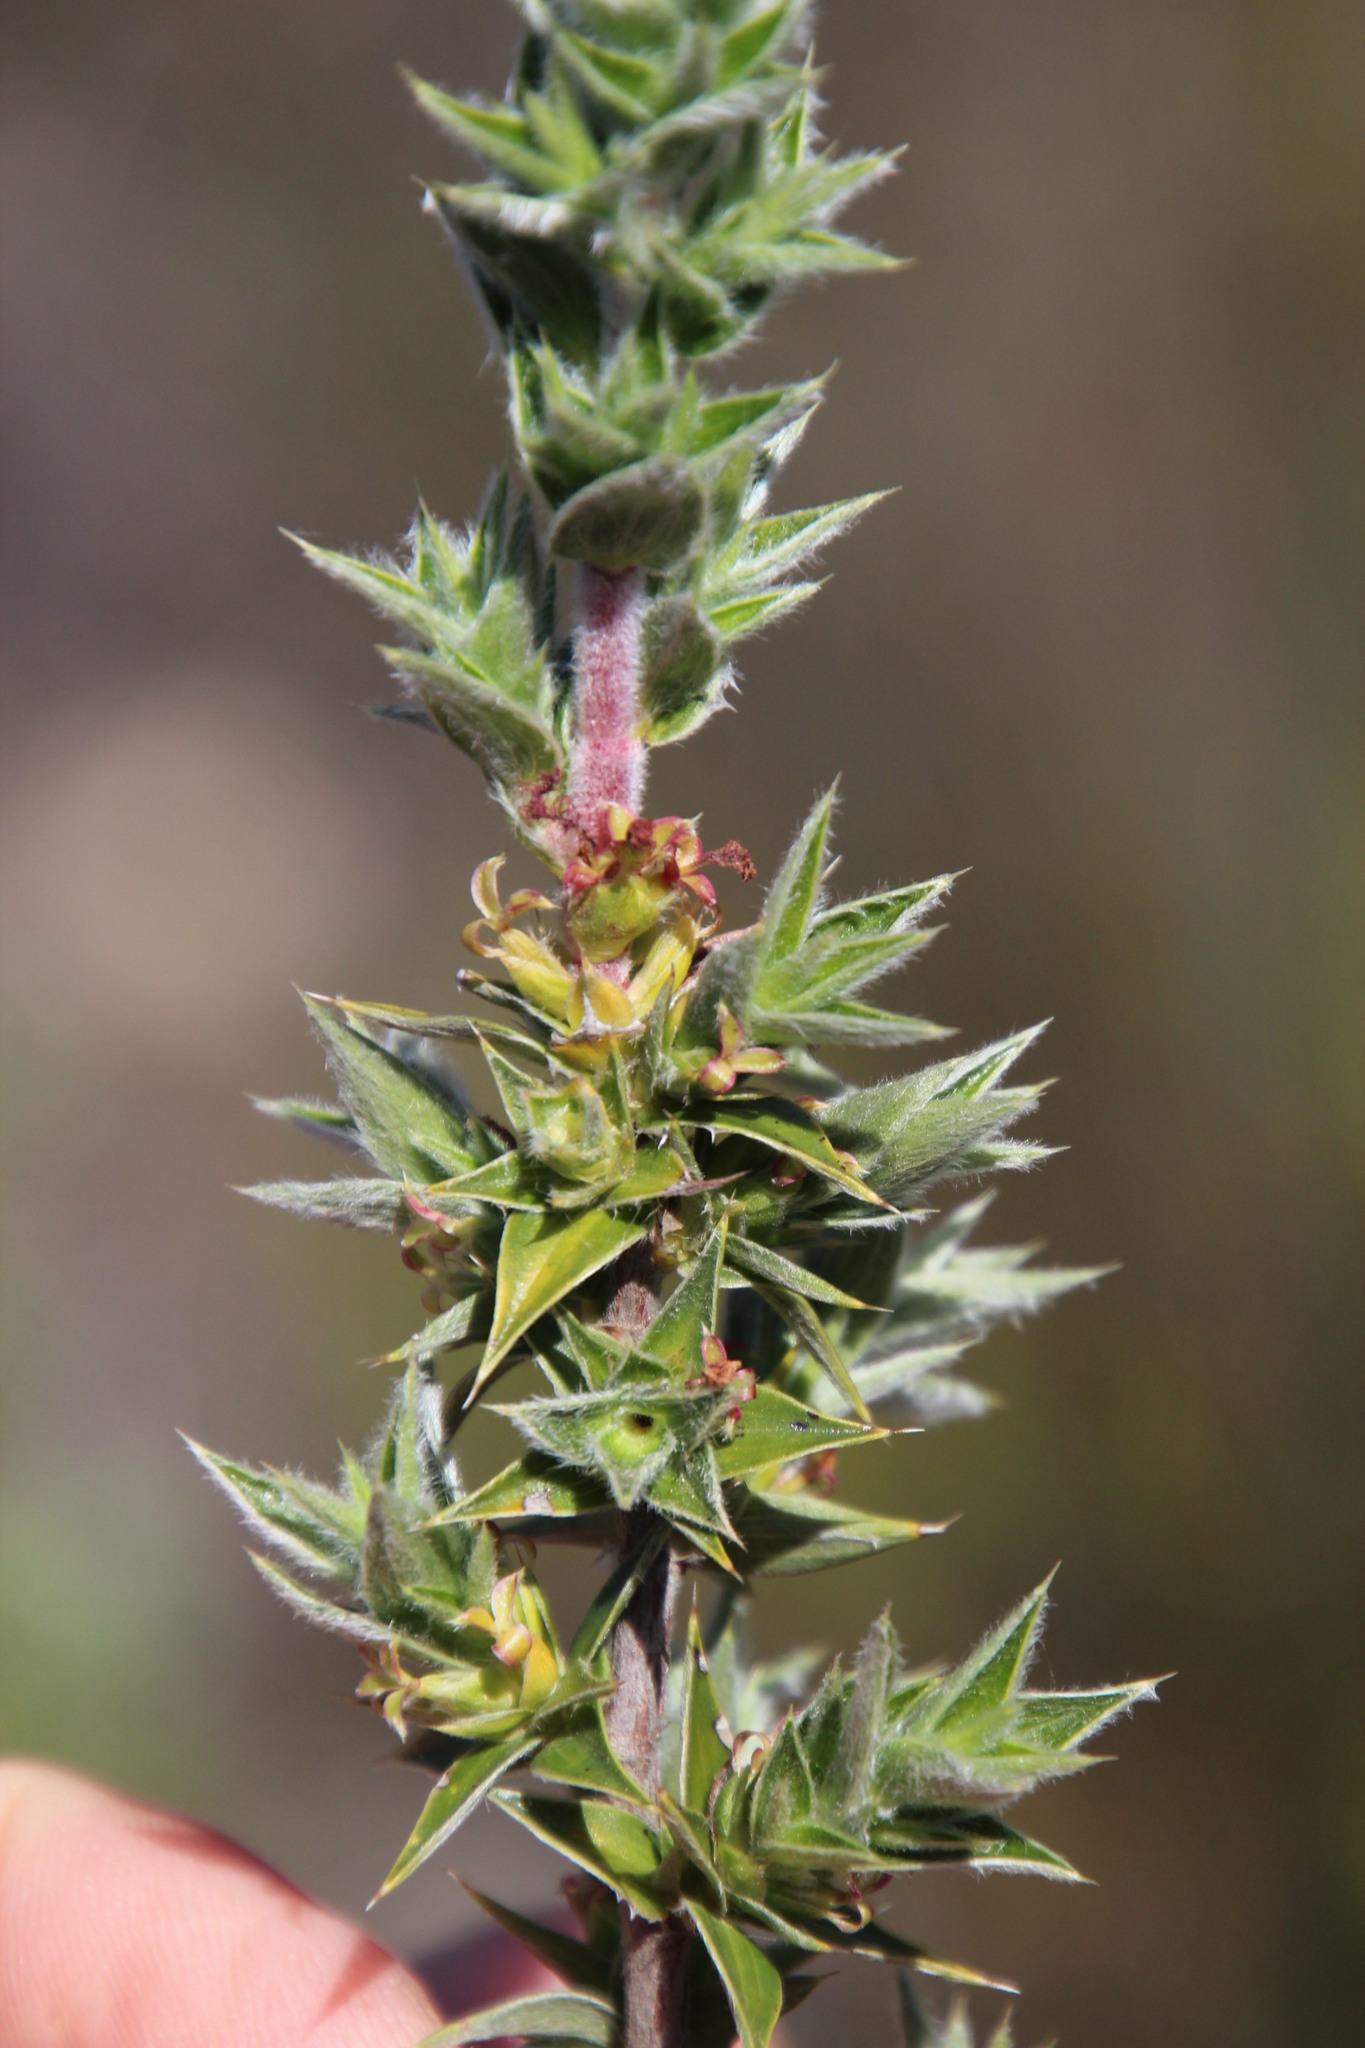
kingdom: Plantae
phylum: Tracheophyta
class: Magnoliopsida
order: Rosales
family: Rosaceae
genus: Cliffortia
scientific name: Cliffortia ruscifolia
